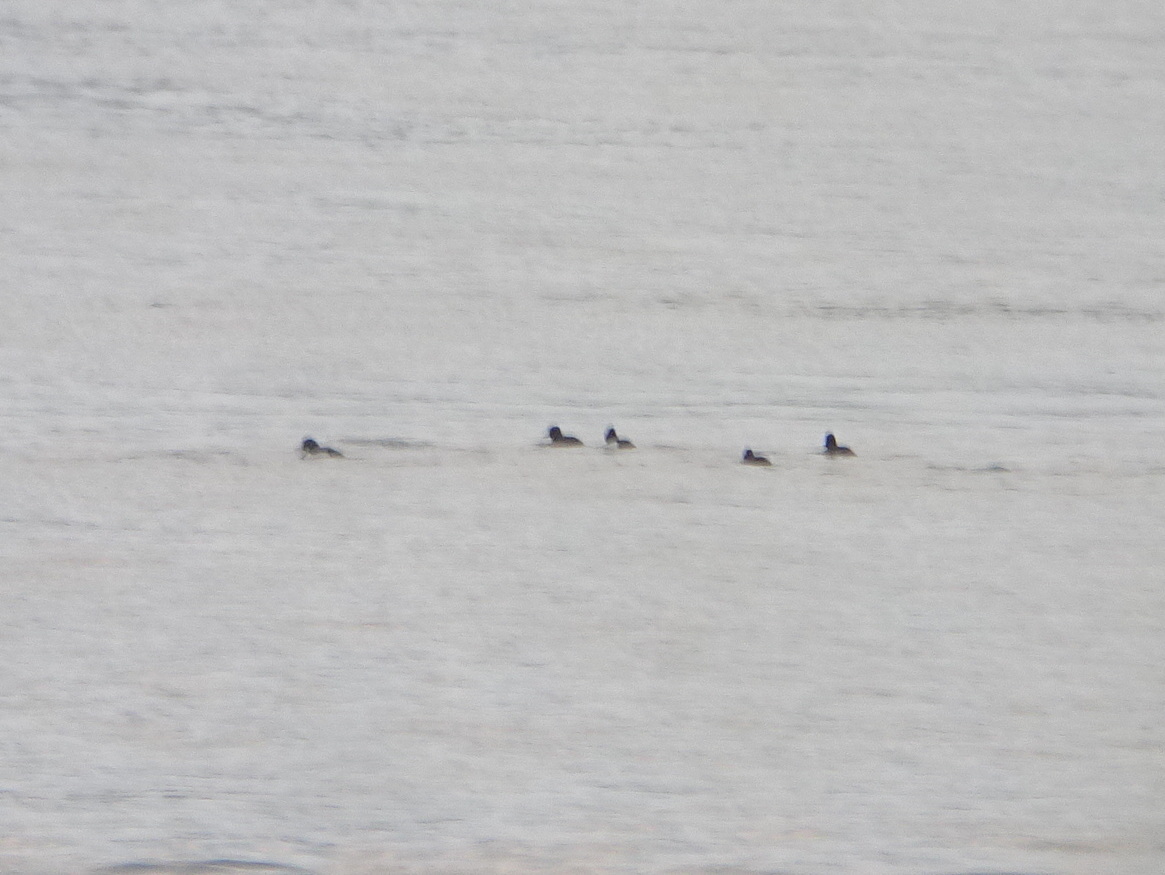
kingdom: Animalia
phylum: Chordata
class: Aves
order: Anseriformes
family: Anatidae
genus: Aythya
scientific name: Aythya fuligula
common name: Tufted duck
